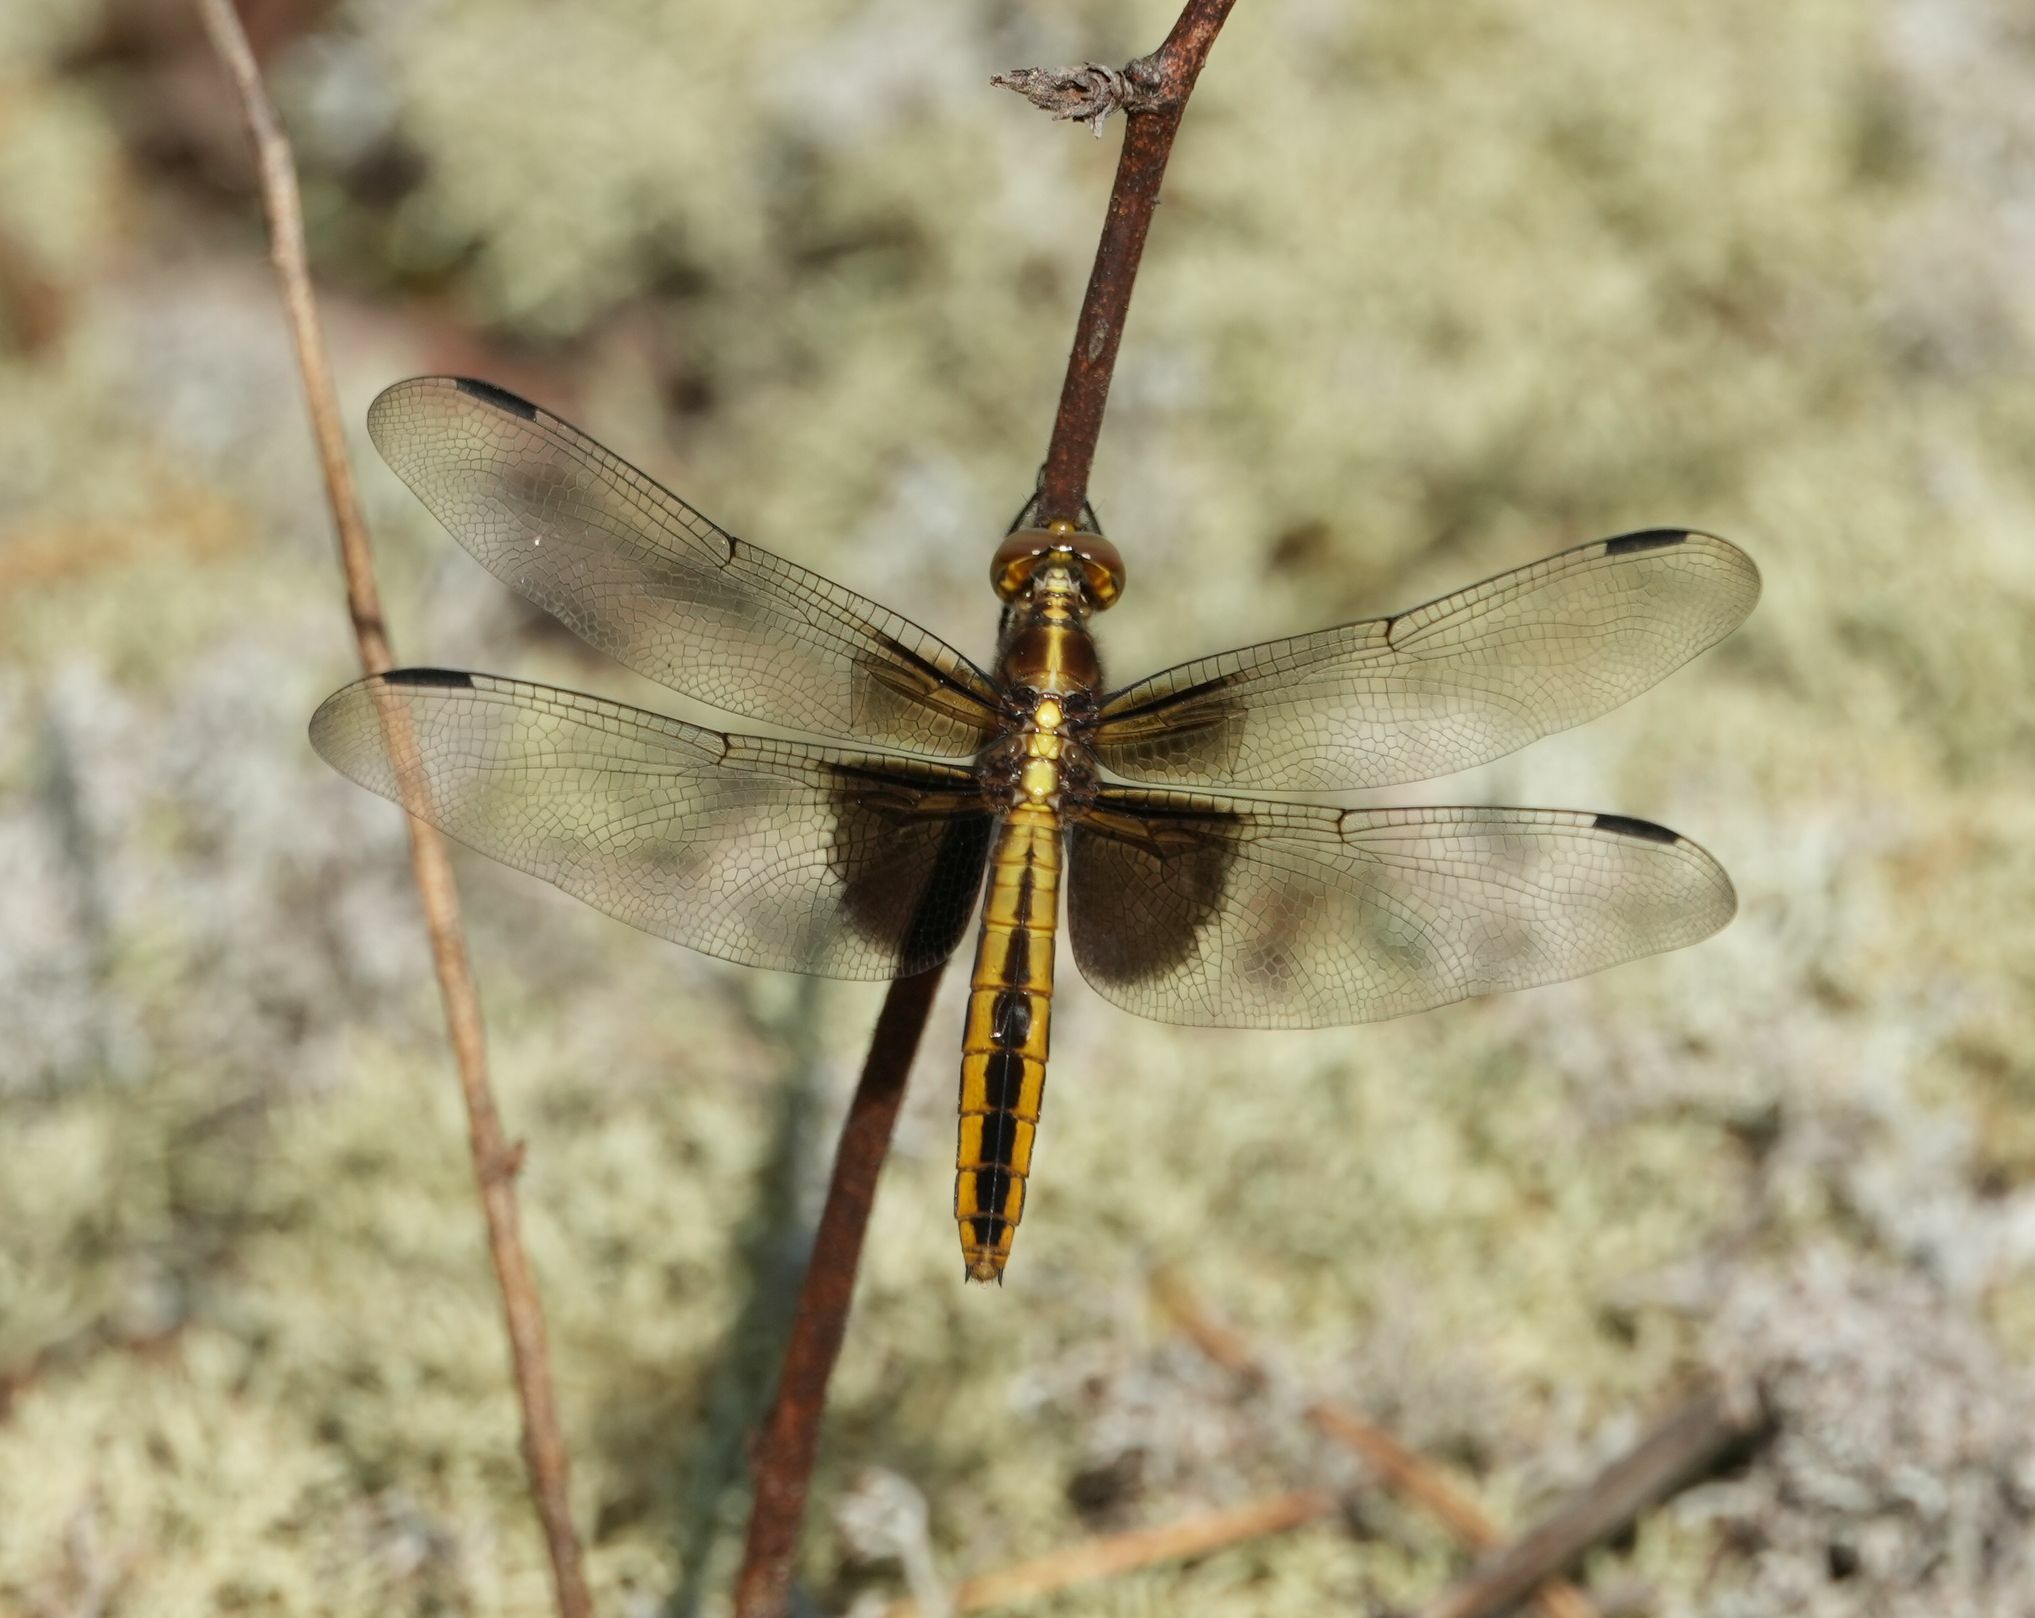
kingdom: Animalia
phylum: Arthropoda
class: Insecta
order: Odonata
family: Libellulidae
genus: Libellula
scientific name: Libellula luctuosa
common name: Widow skimmer
